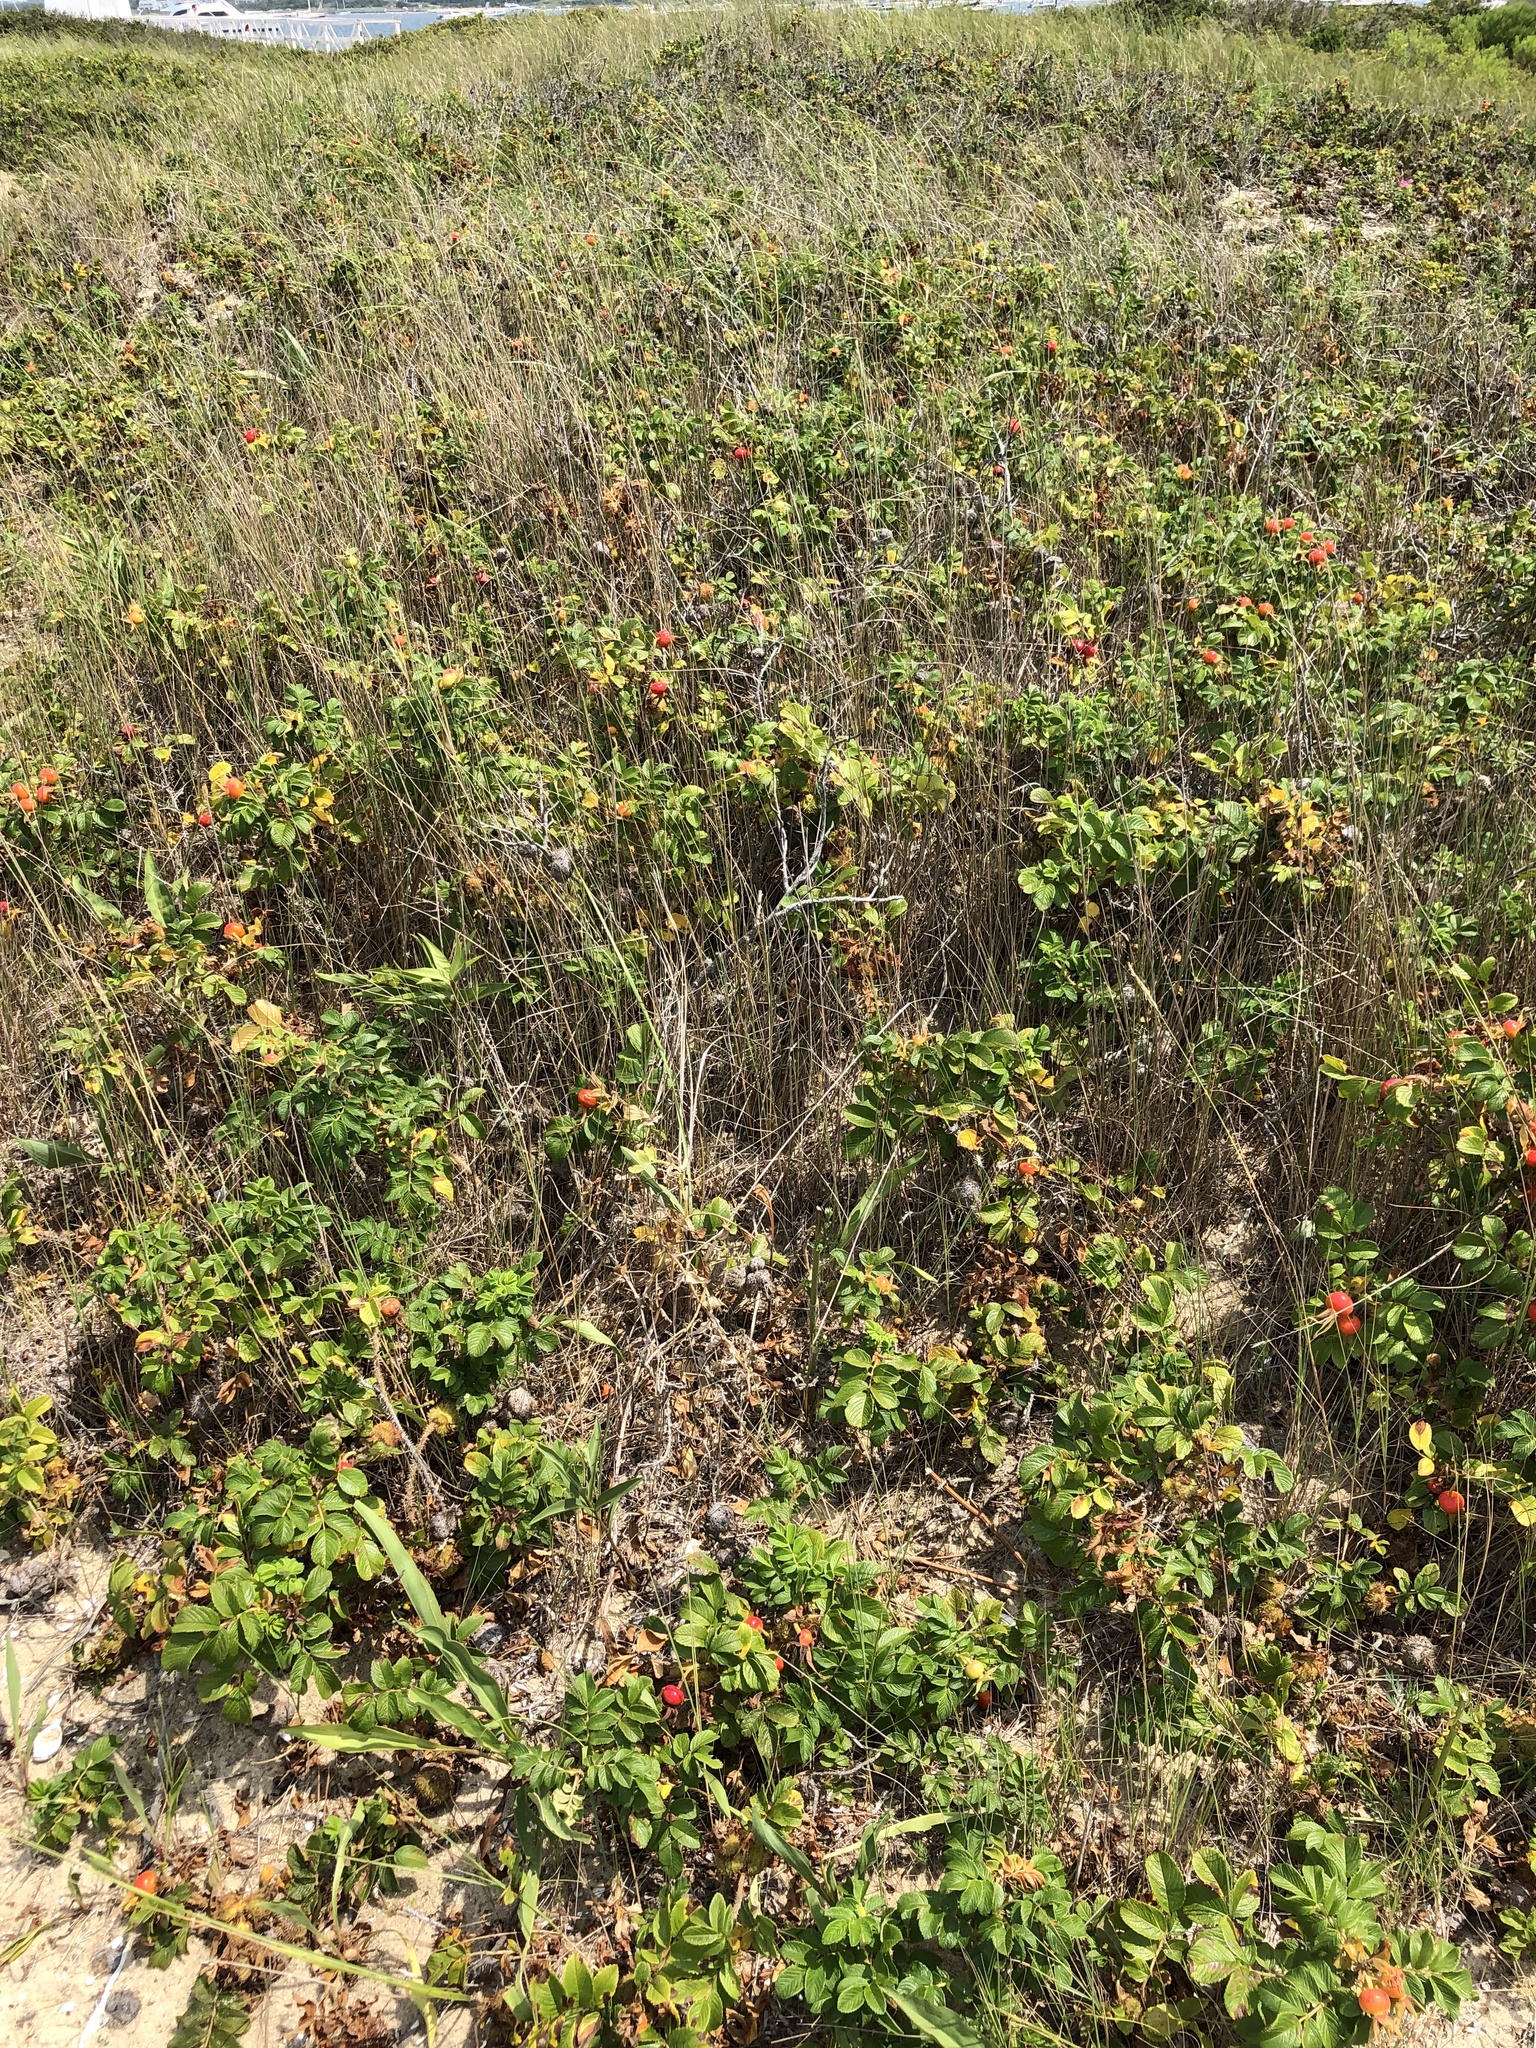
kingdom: Plantae
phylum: Tracheophyta
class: Magnoliopsida
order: Rosales
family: Rosaceae
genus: Rosa
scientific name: Rosa rugosa
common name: Japanese rose
